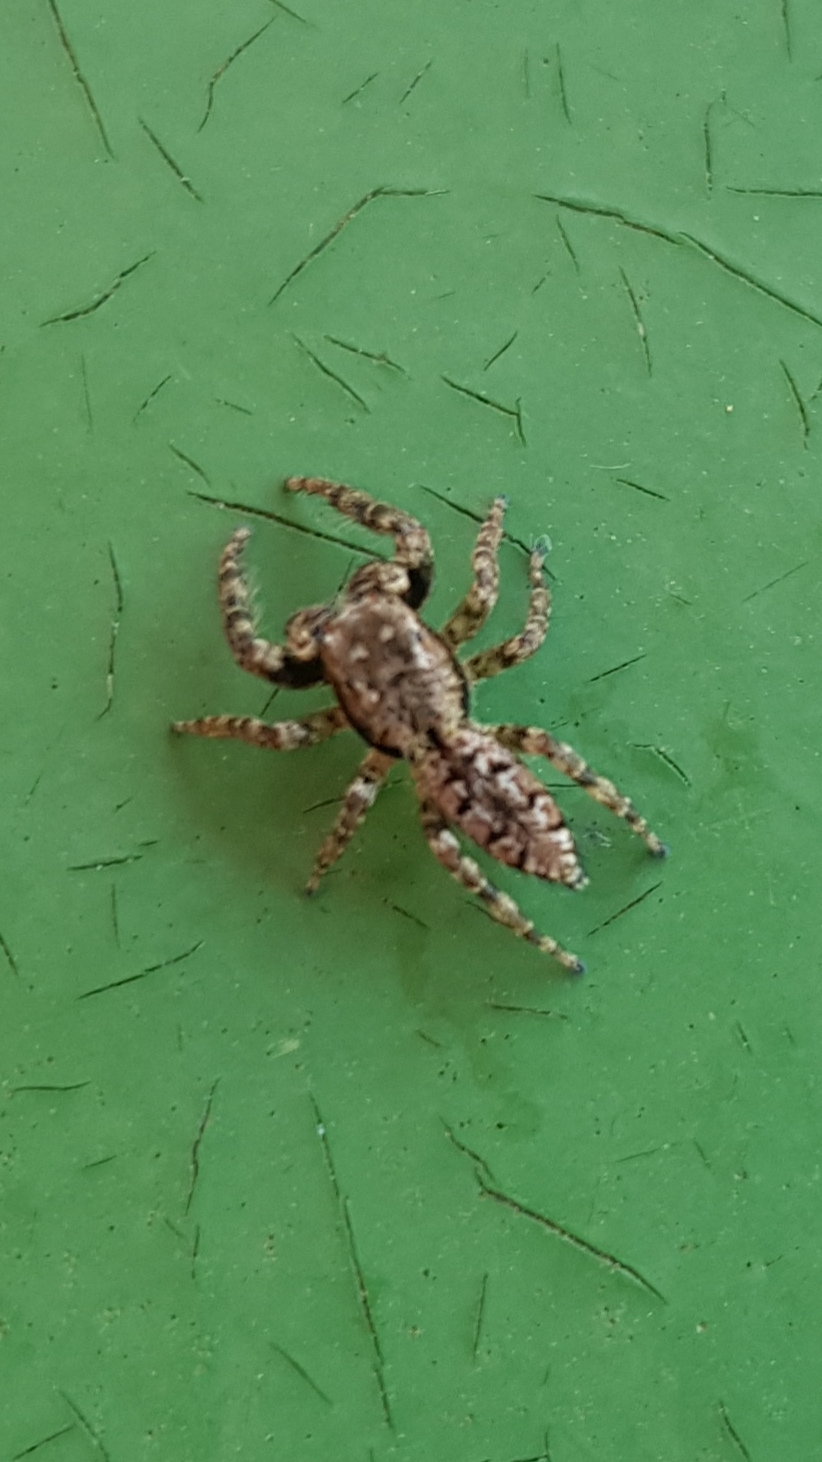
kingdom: Animalia
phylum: Arthropoda
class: Arachnida
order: Araneae
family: Salticidae
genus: Marpissa
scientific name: Marpissa muscosa
